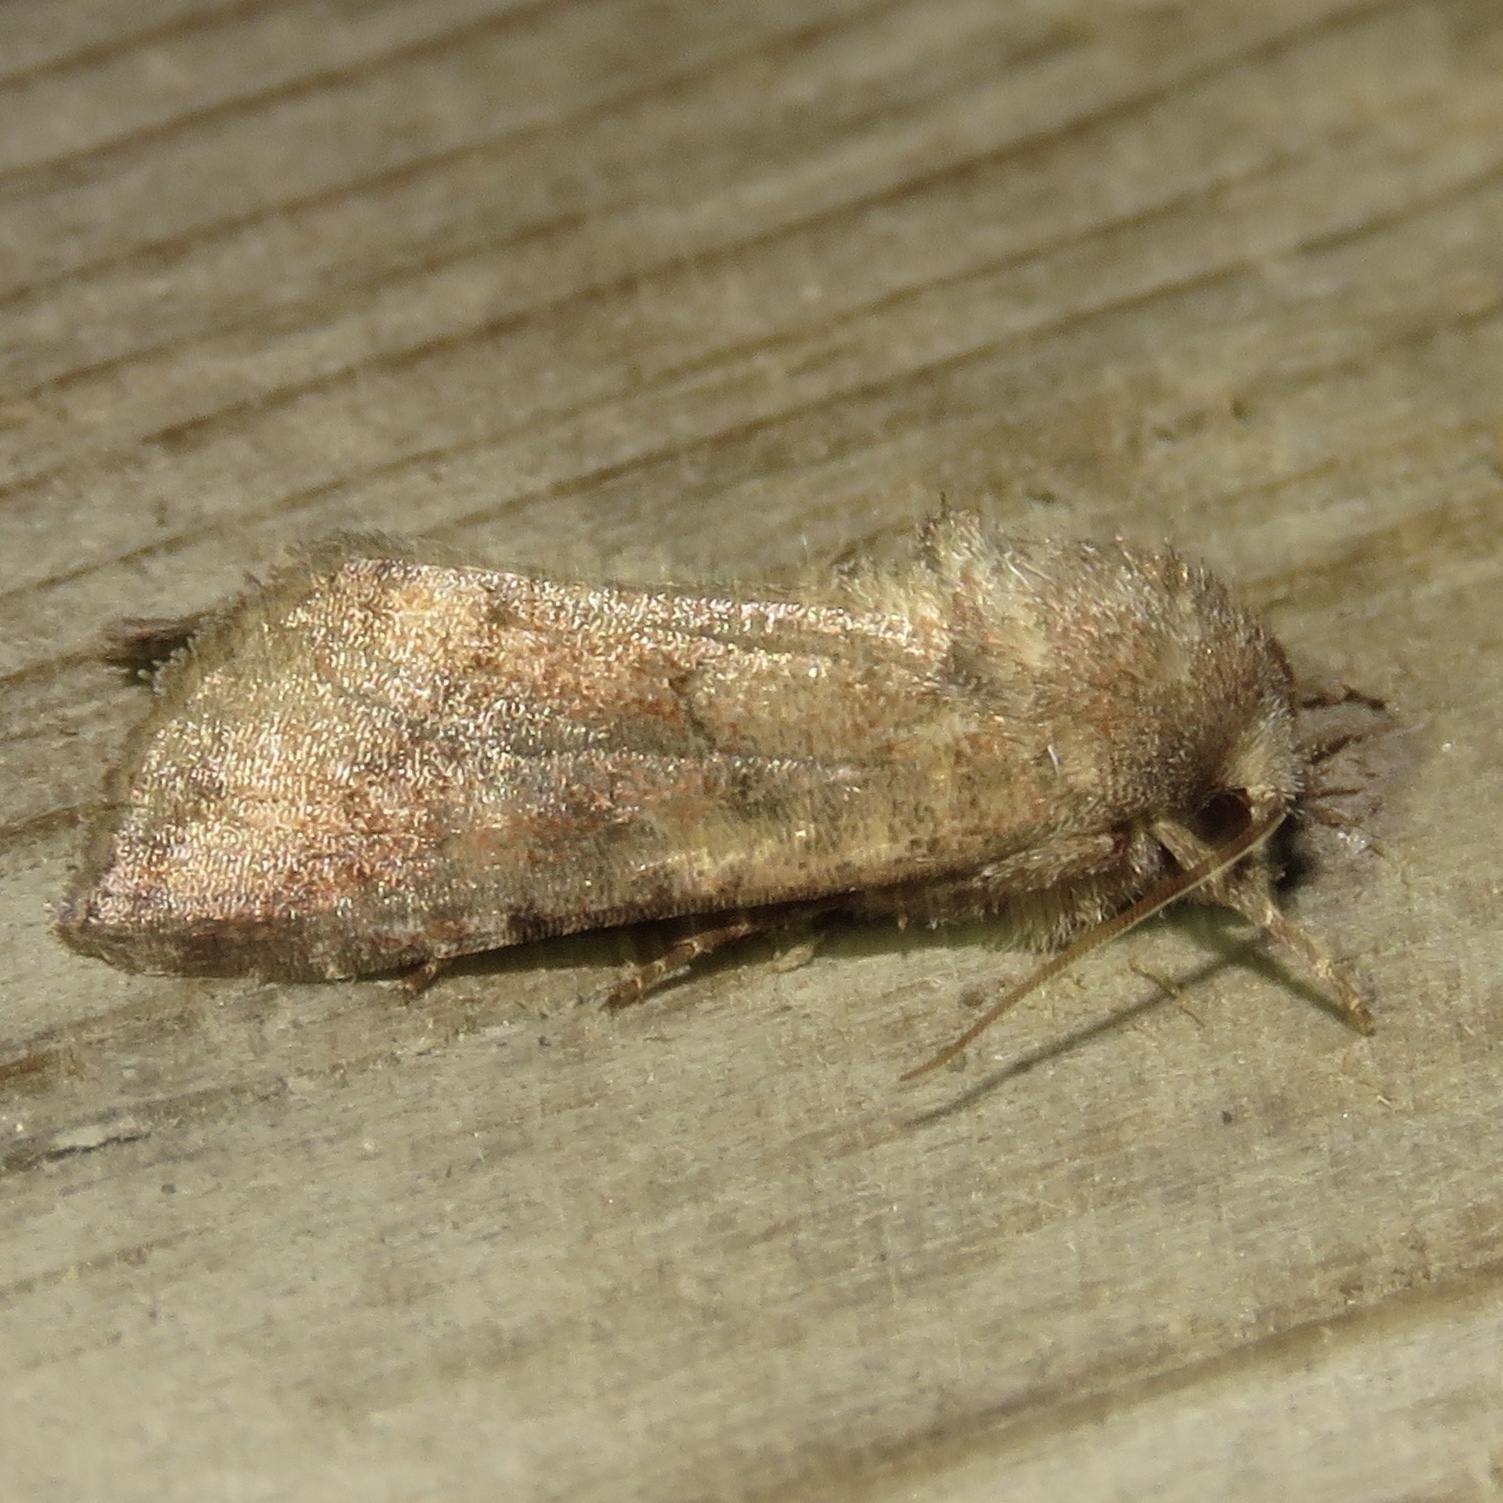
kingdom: Animalia
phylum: Arthropoda
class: Insecta
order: Lepidoptera
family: Noctuidae
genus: Tricholita
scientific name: Tricholita signata
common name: Signate quaker
